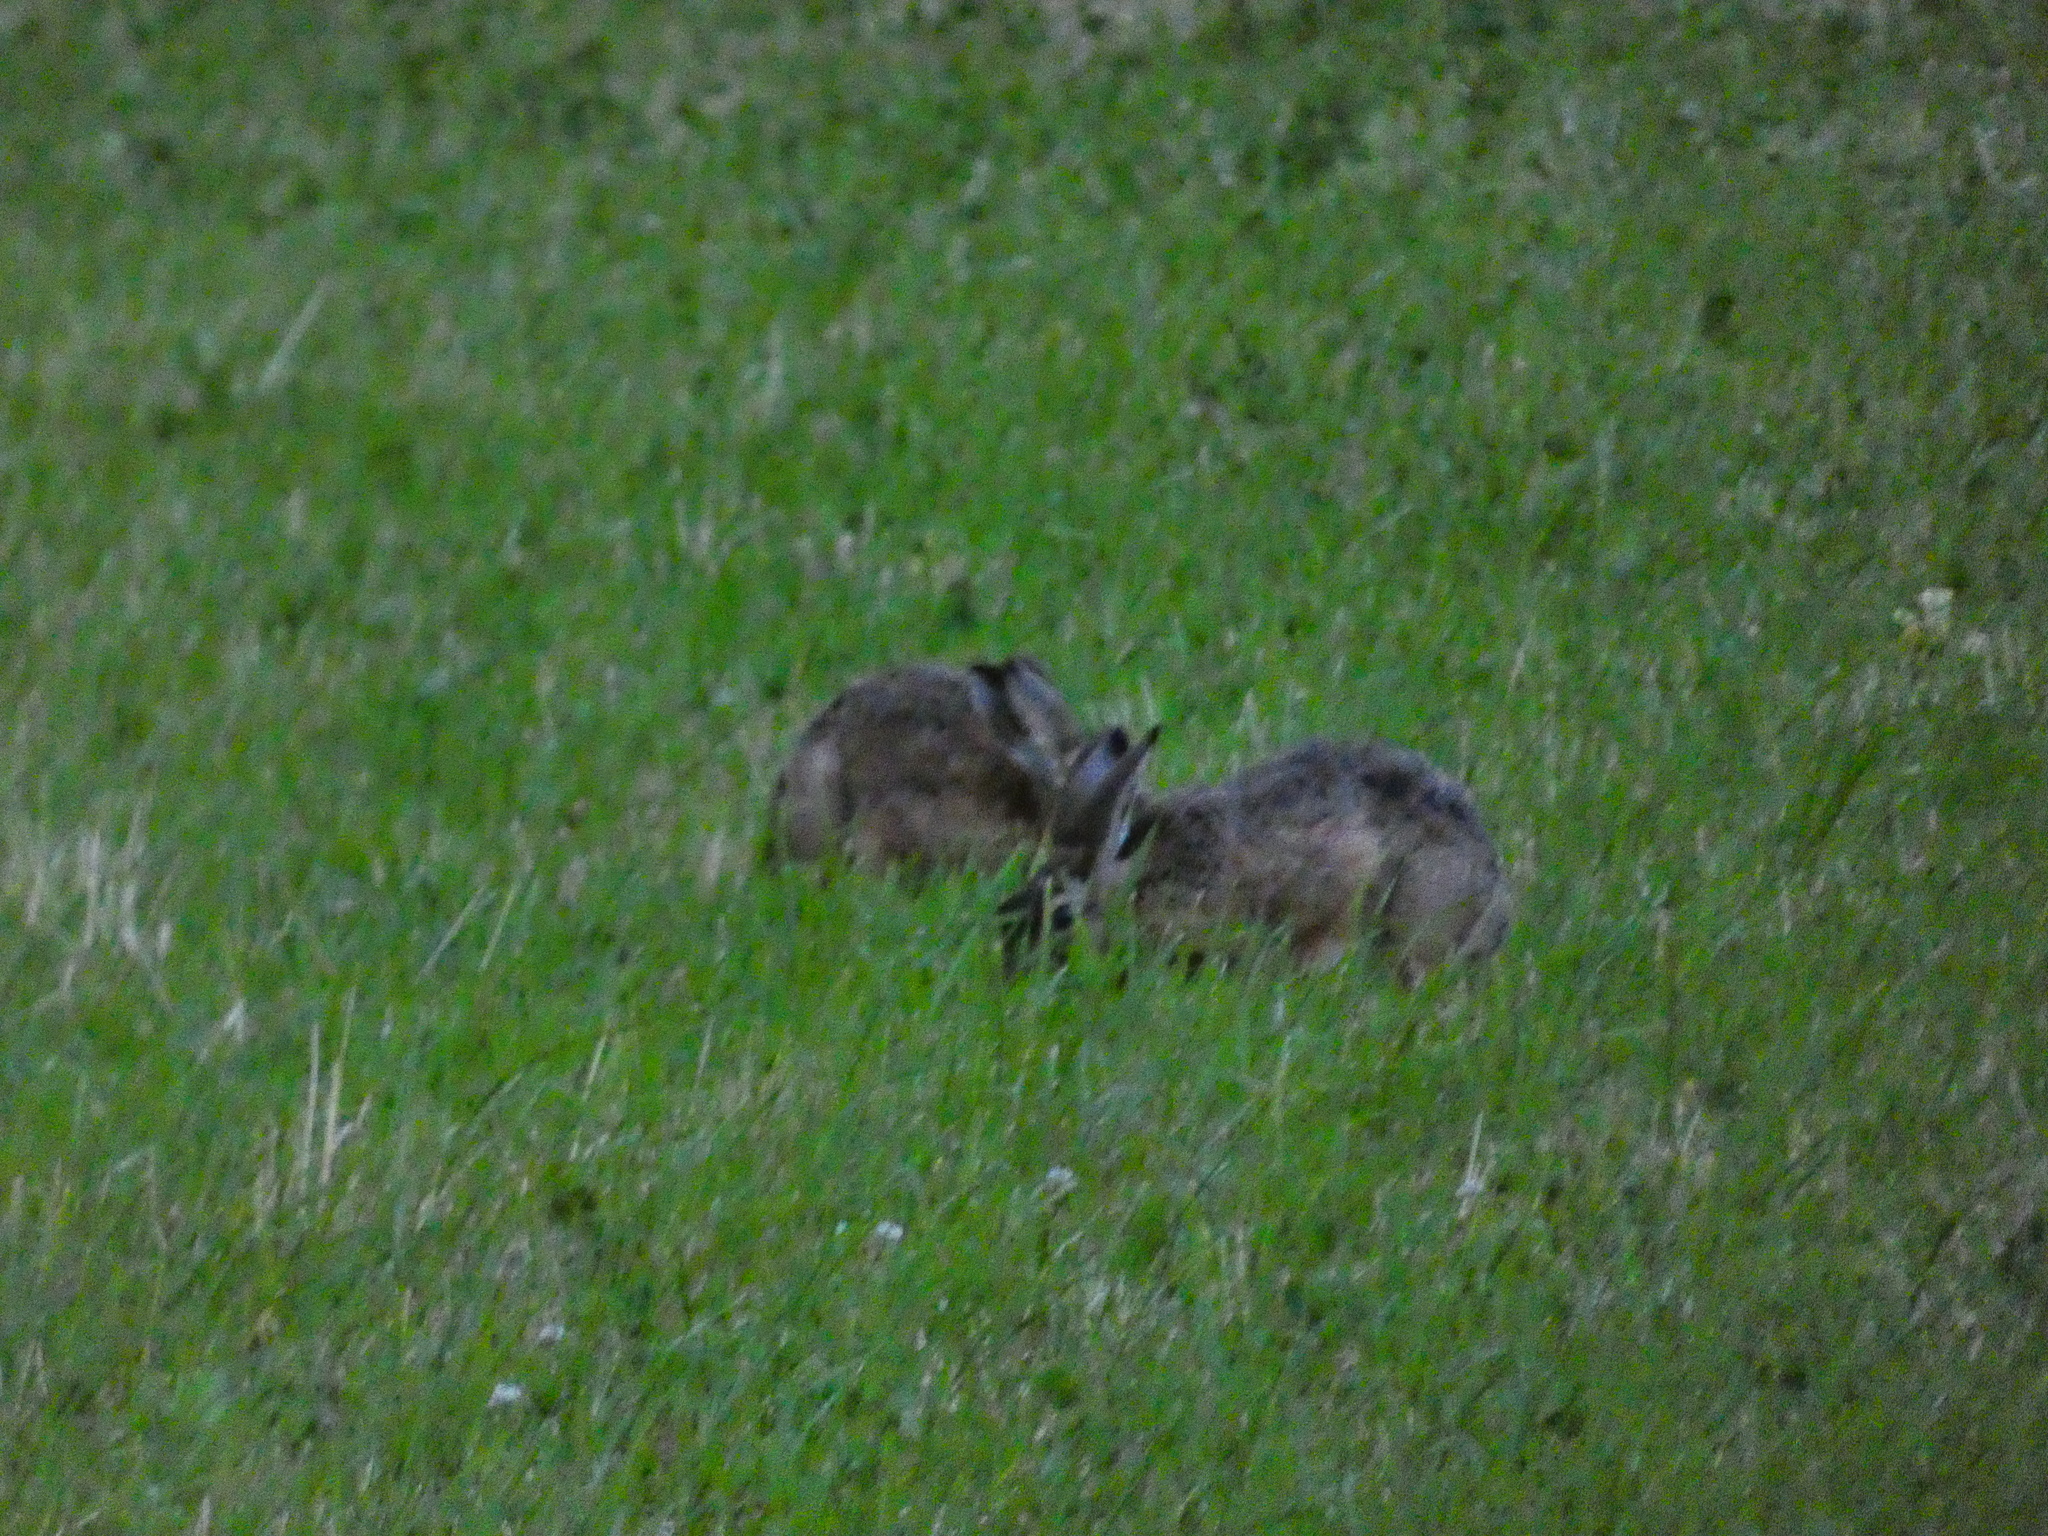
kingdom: Animalia
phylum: Chordata
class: Mammalia
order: Lagomorpha
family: Leporidae
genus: Lepus
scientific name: Lepus europaeus
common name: European hare
